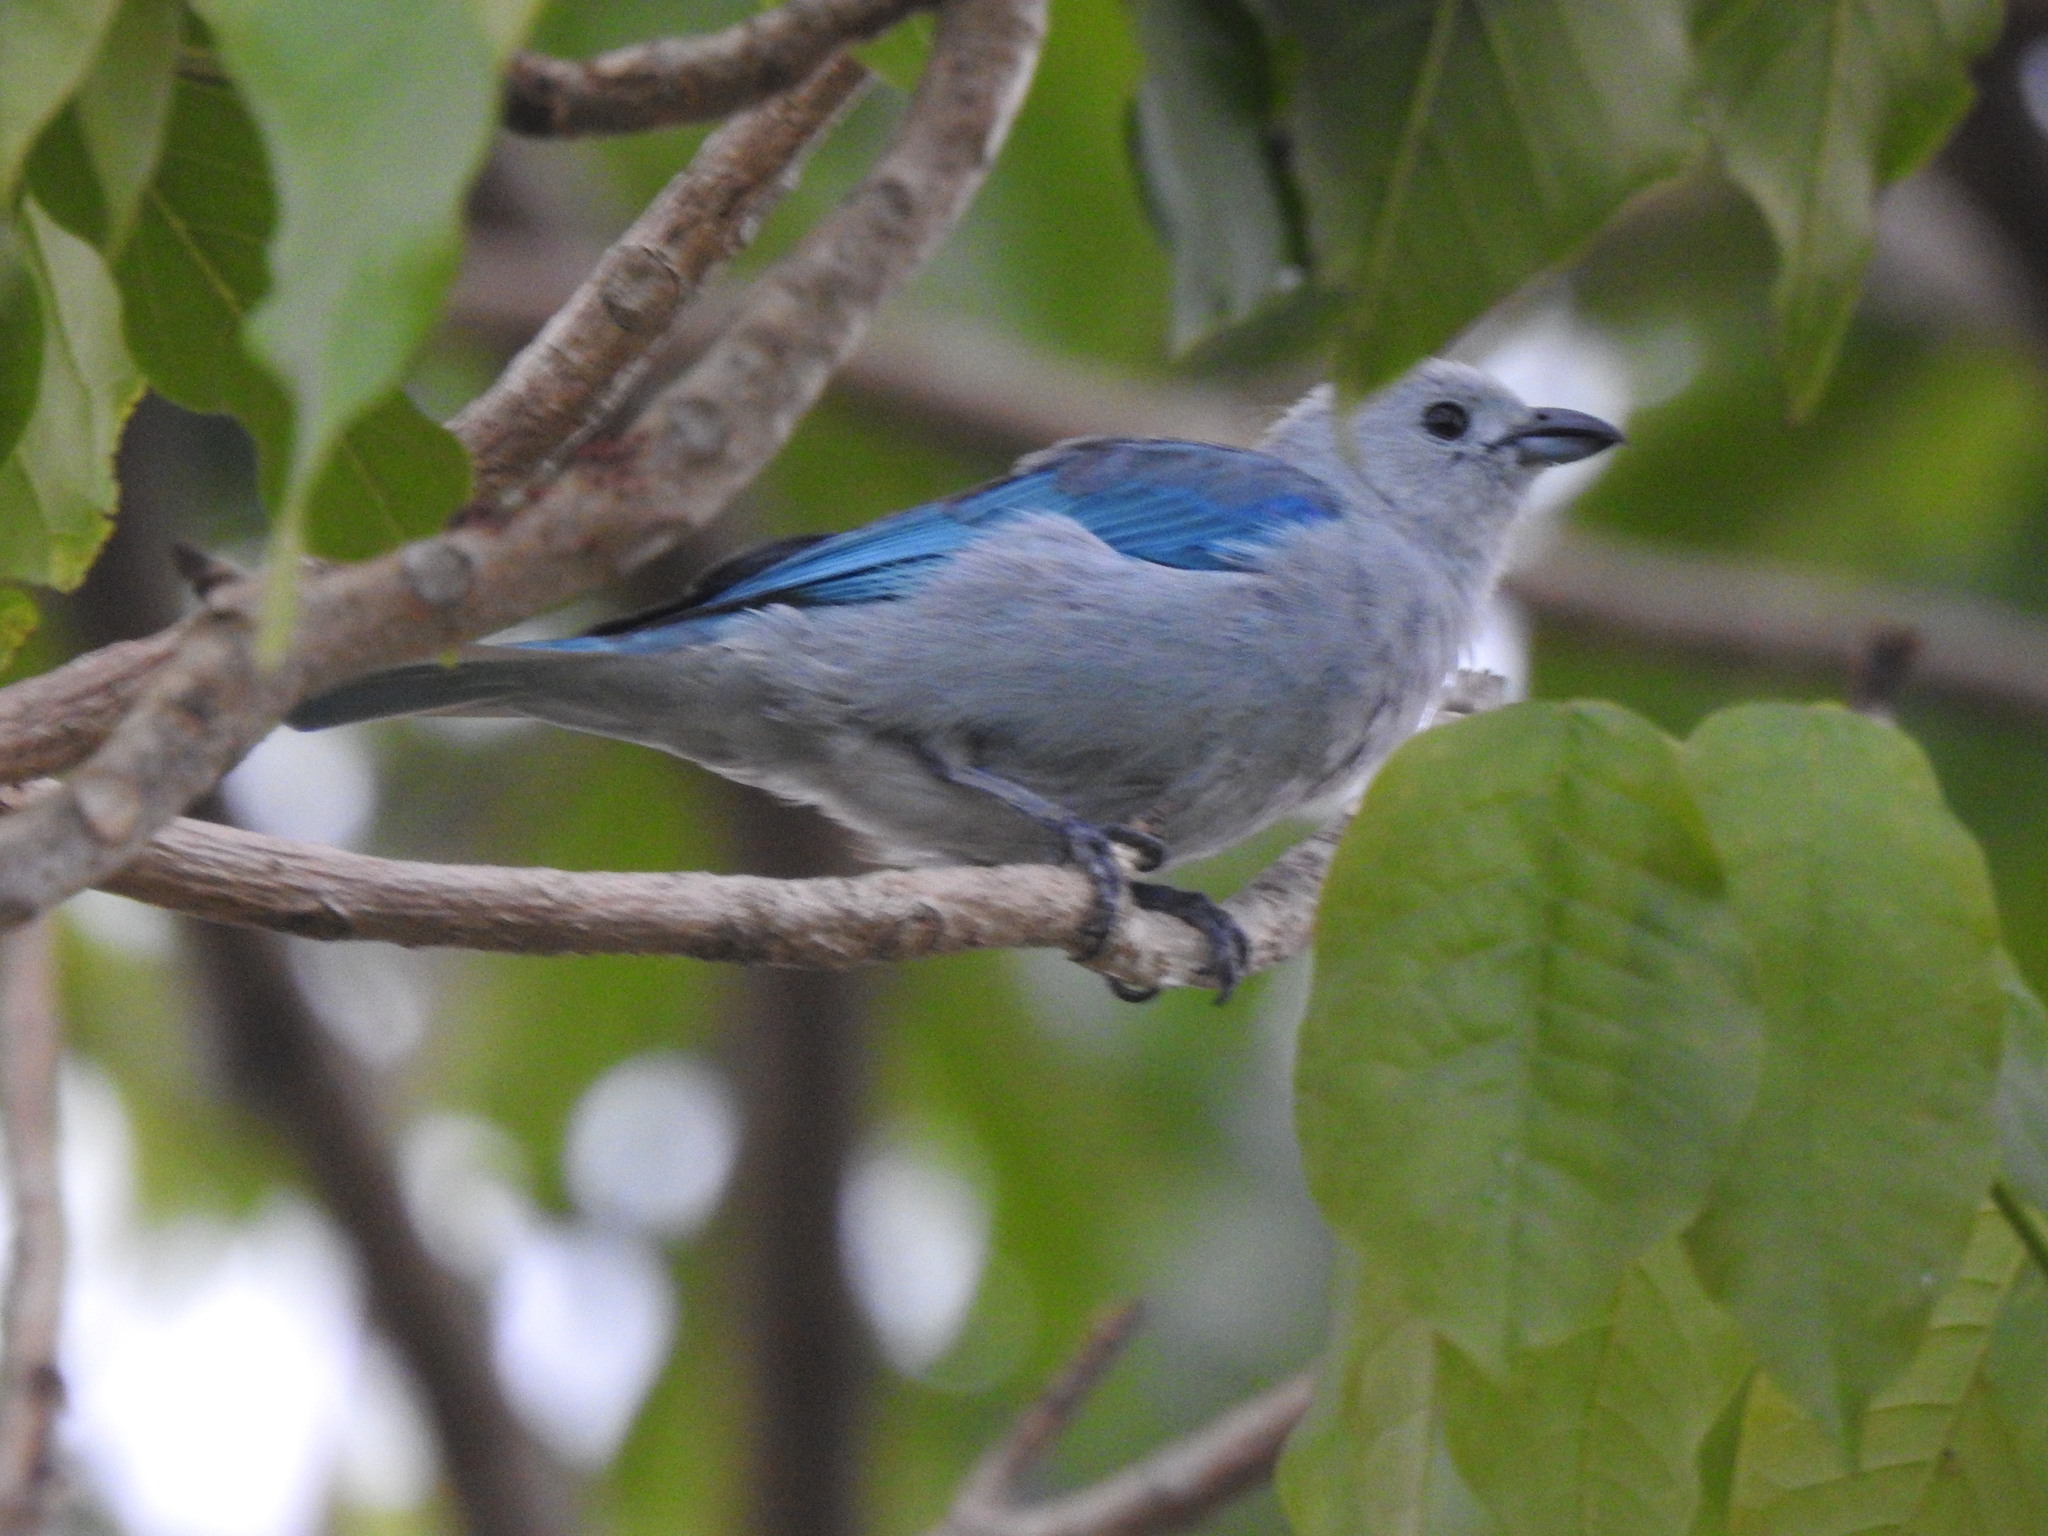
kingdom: Animalia
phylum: Chordata
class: Aves
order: Passeriformes
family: Thraupidae
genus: Thraupis
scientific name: Thraupis episcopus
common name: Blue-grey tanager
